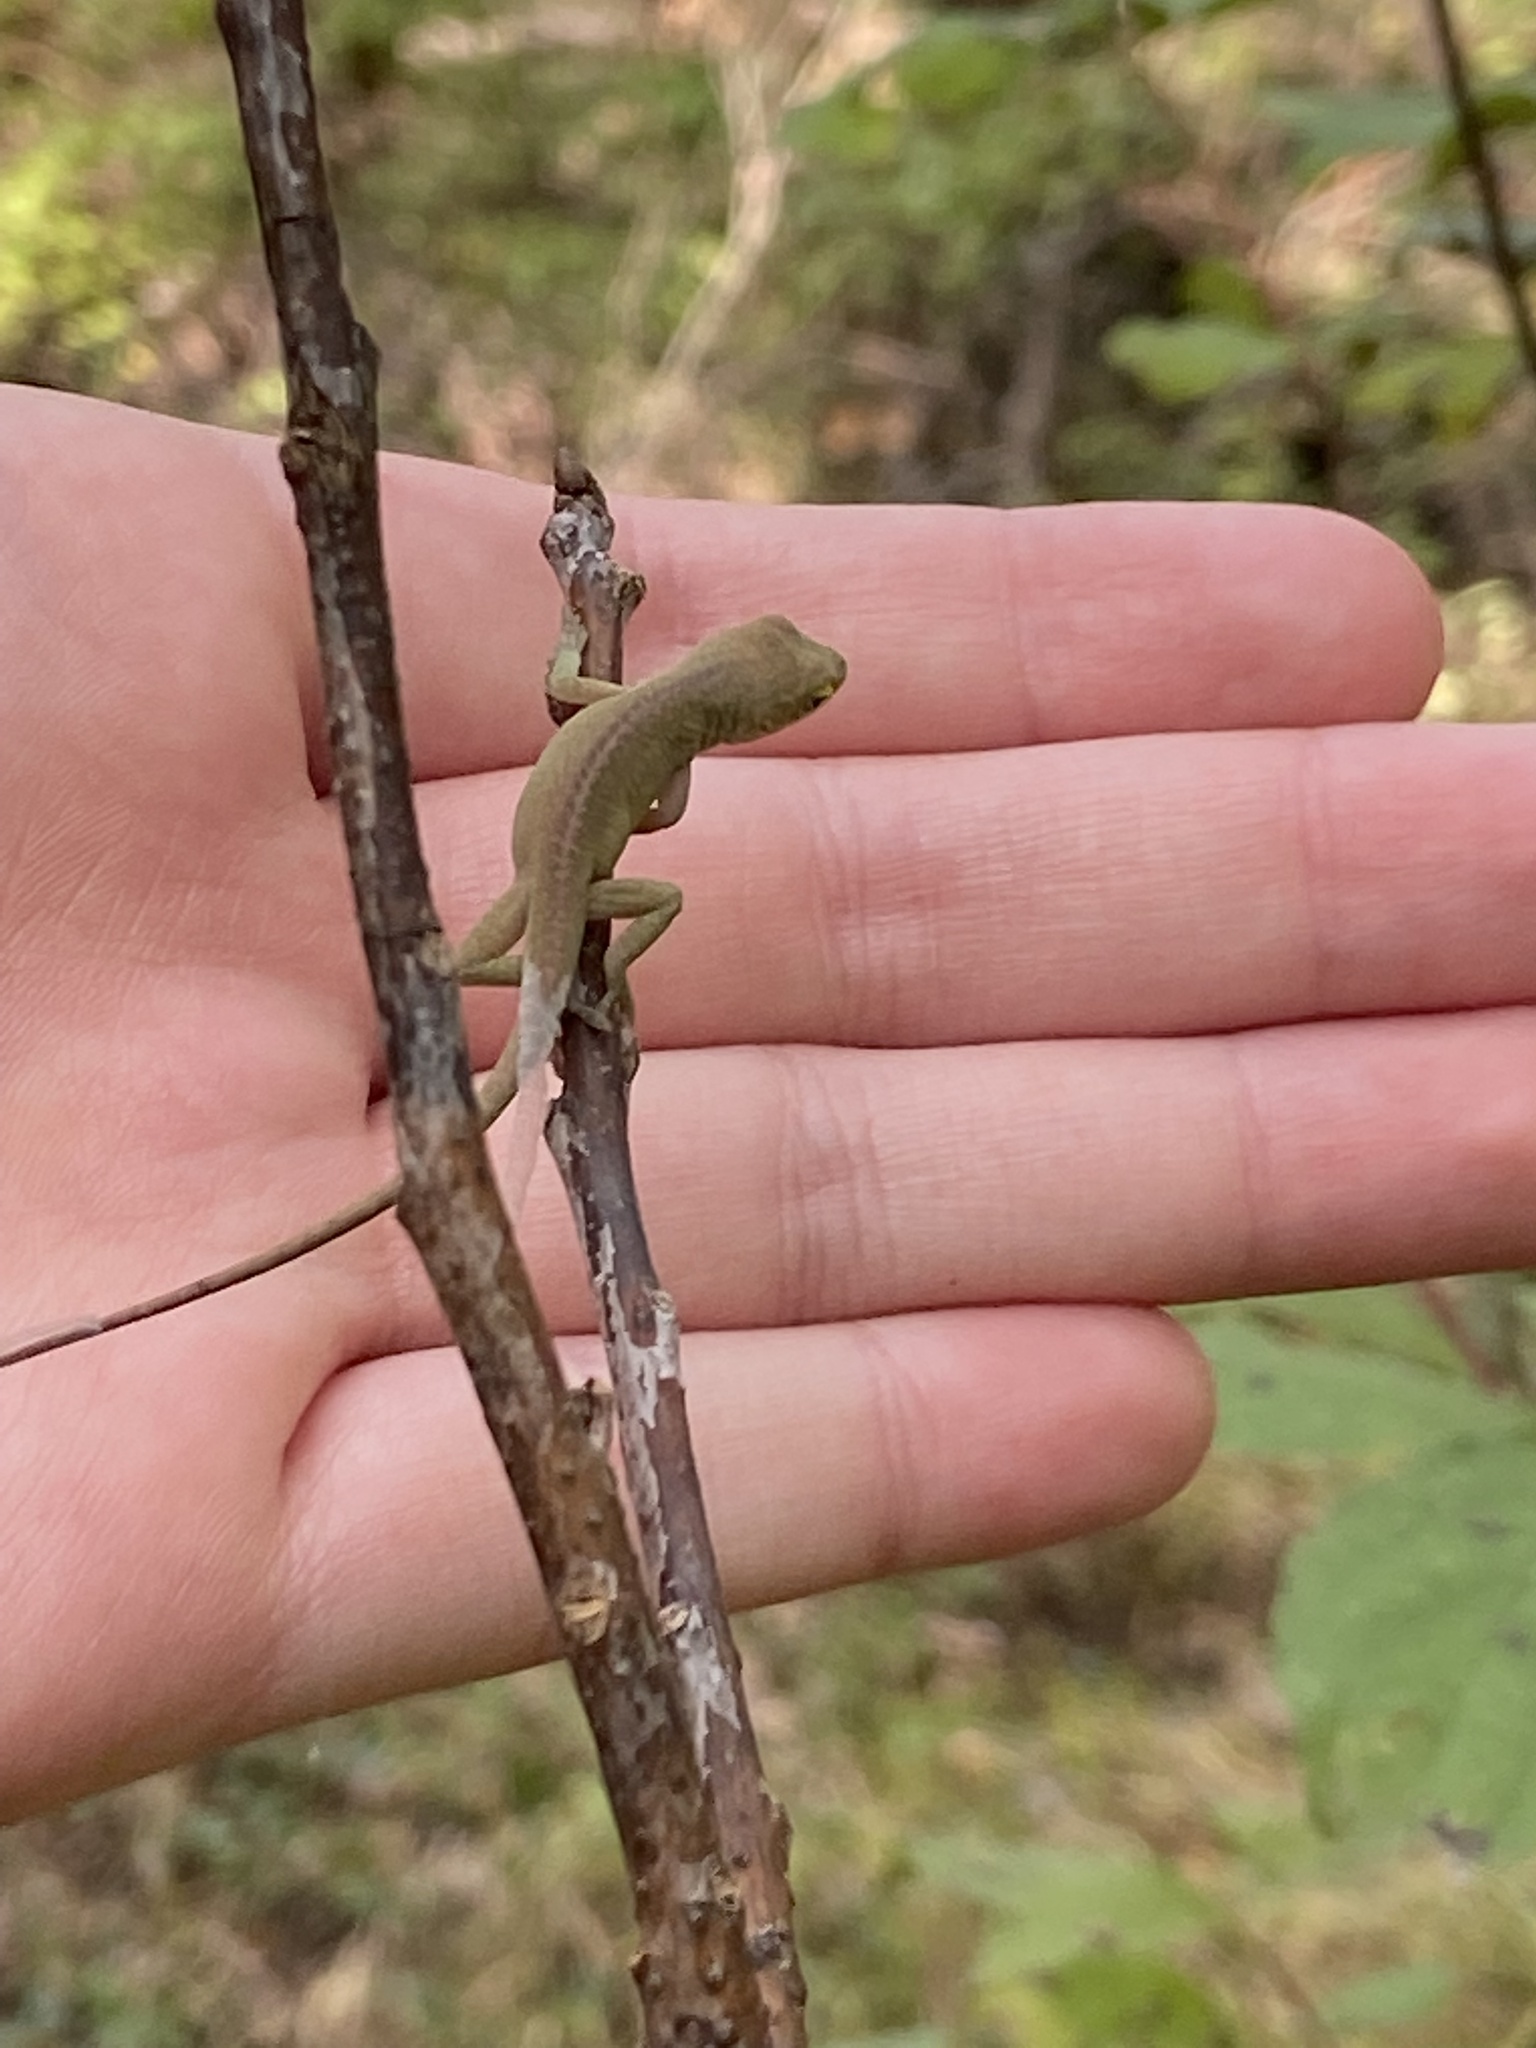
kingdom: Animalia
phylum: Chordata
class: Squamata
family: Dactyloidae
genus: Anolis
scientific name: Anolis carolinensis
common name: Green anole
